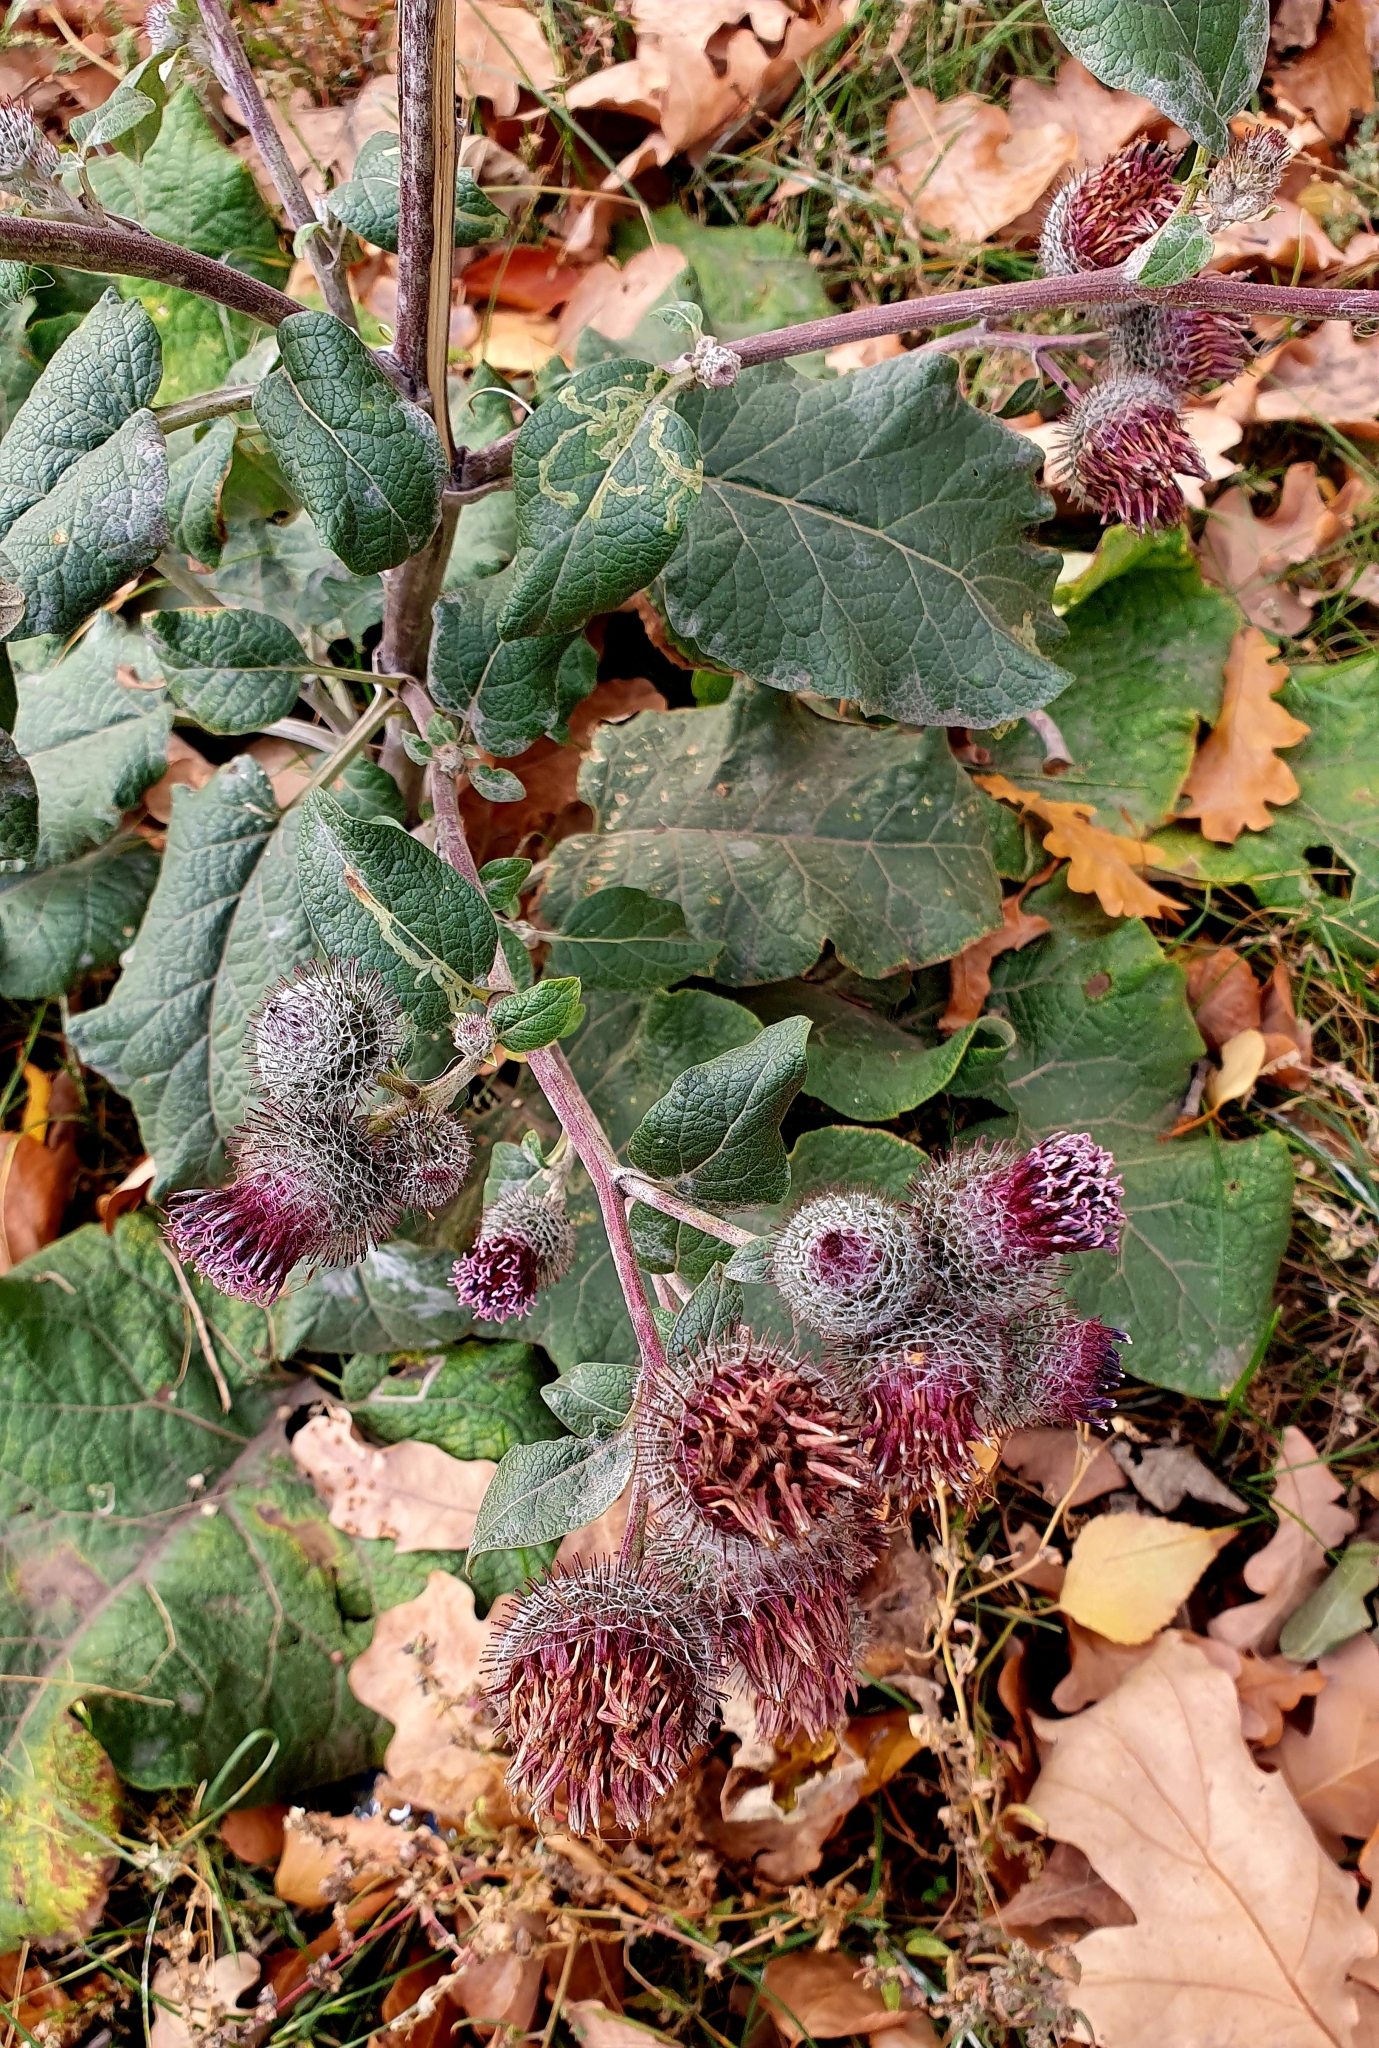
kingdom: Plantae
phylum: Tracheophyta
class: Magnoliopsida
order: Asterales
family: Asteraceae
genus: Arctium
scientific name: Arctium tomentosum
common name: Woolly burdock
